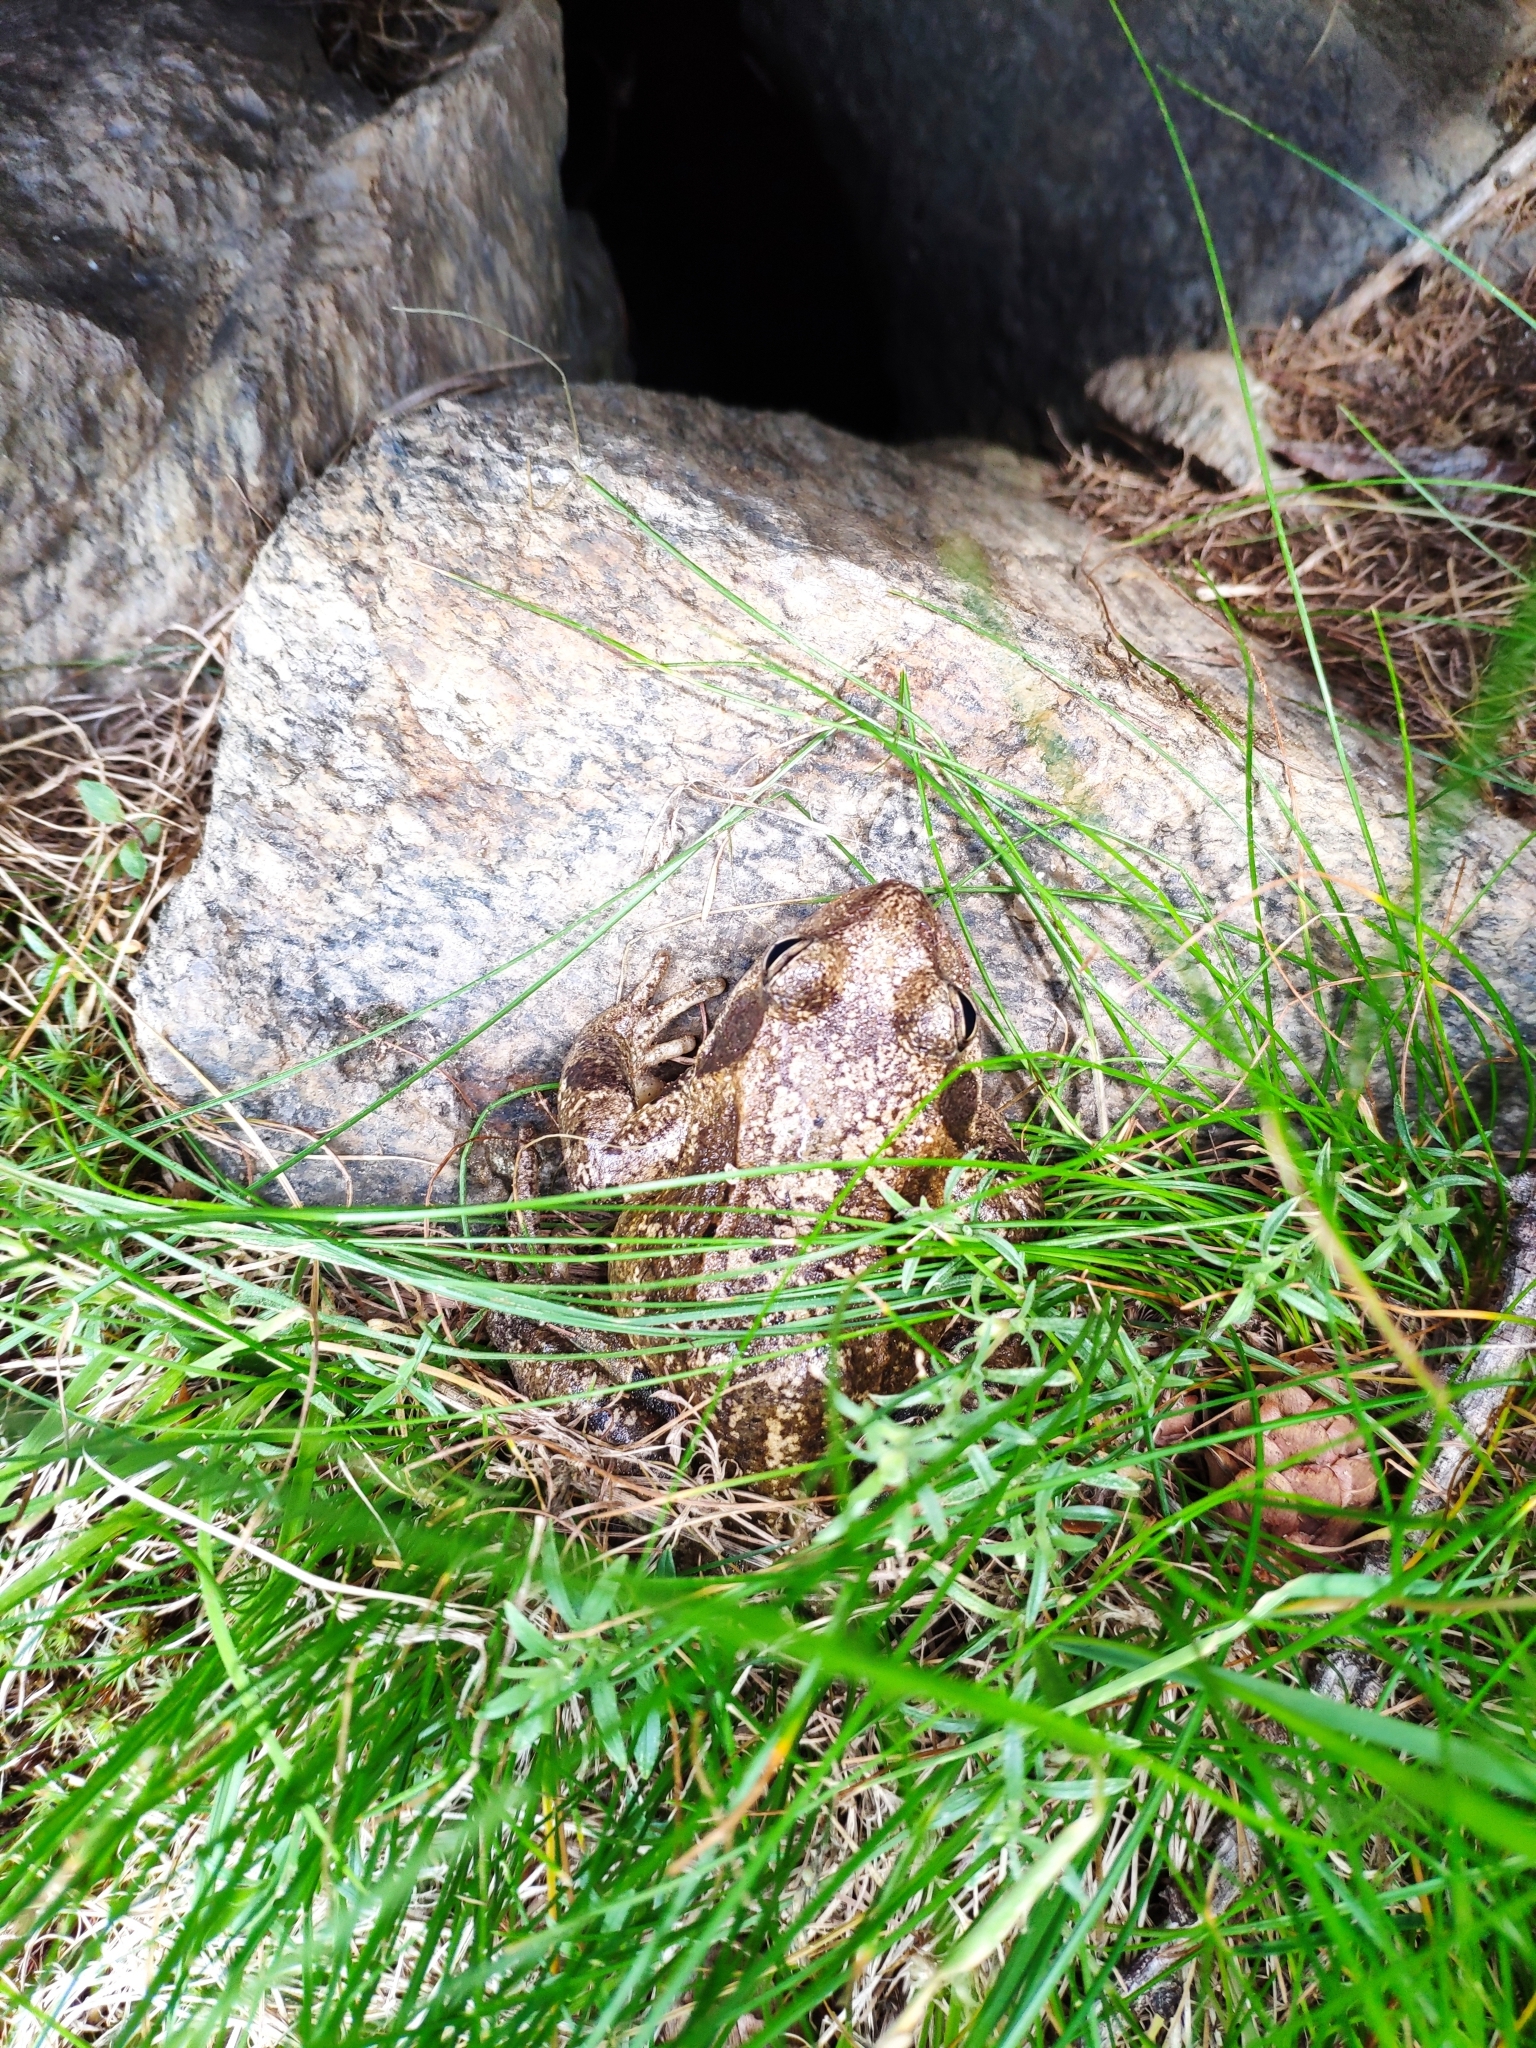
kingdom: Animalia
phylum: Chordata
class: Amphibia
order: Anura
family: Ranidae
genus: Rana
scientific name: Rana temporaria
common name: Common frog
